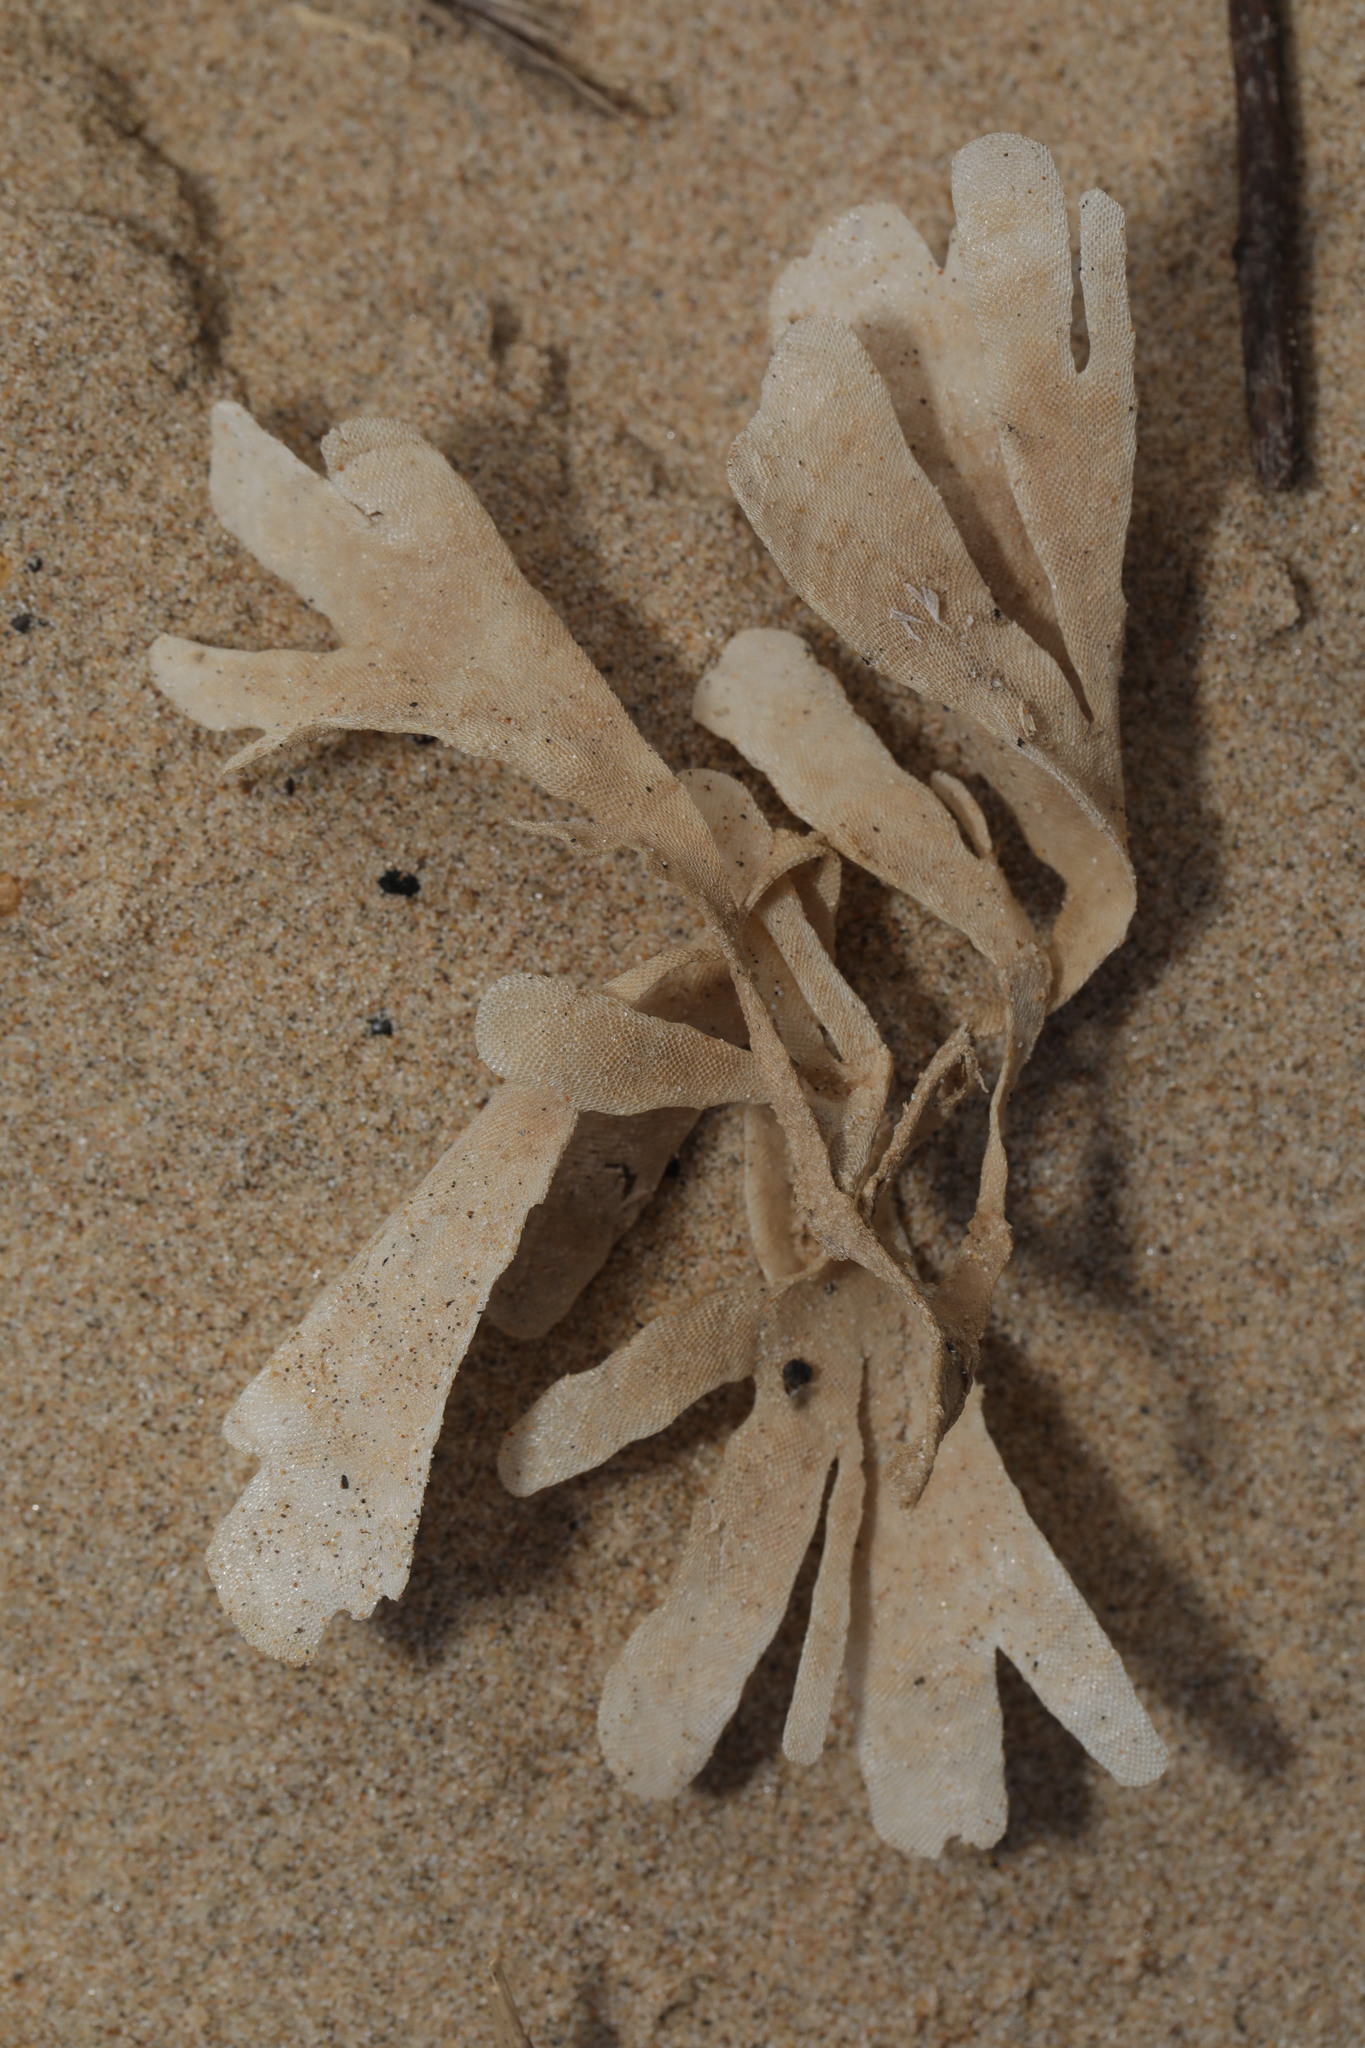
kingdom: Animalia
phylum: Bryozoa
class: Gymnolaemata
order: Cheilostomatida
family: Flustridae
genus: Flustra
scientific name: Flustra foliacea
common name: Hornwrack
